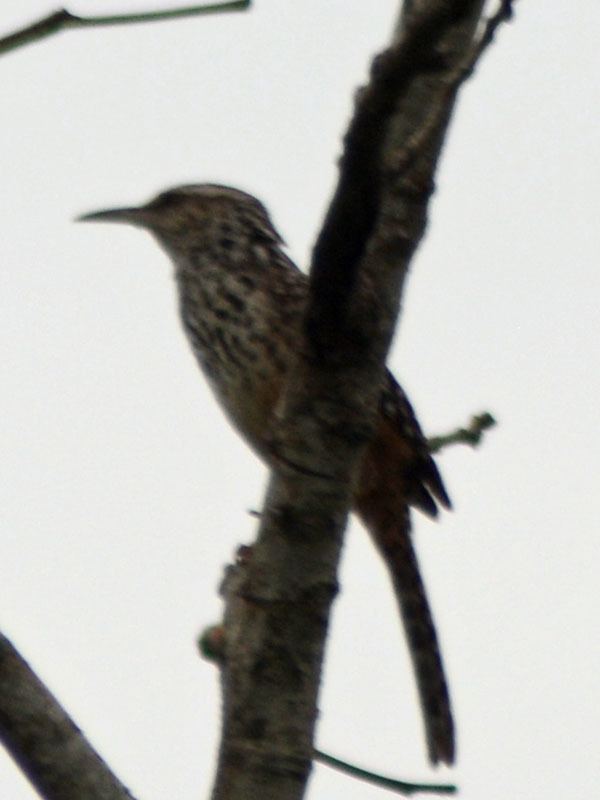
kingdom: Animalia
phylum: Chordata
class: Aves
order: Passeriformes
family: Troglodytidae
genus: Campylorhynchus
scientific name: Campylorhynchus zonatus
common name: Band-backed wren
